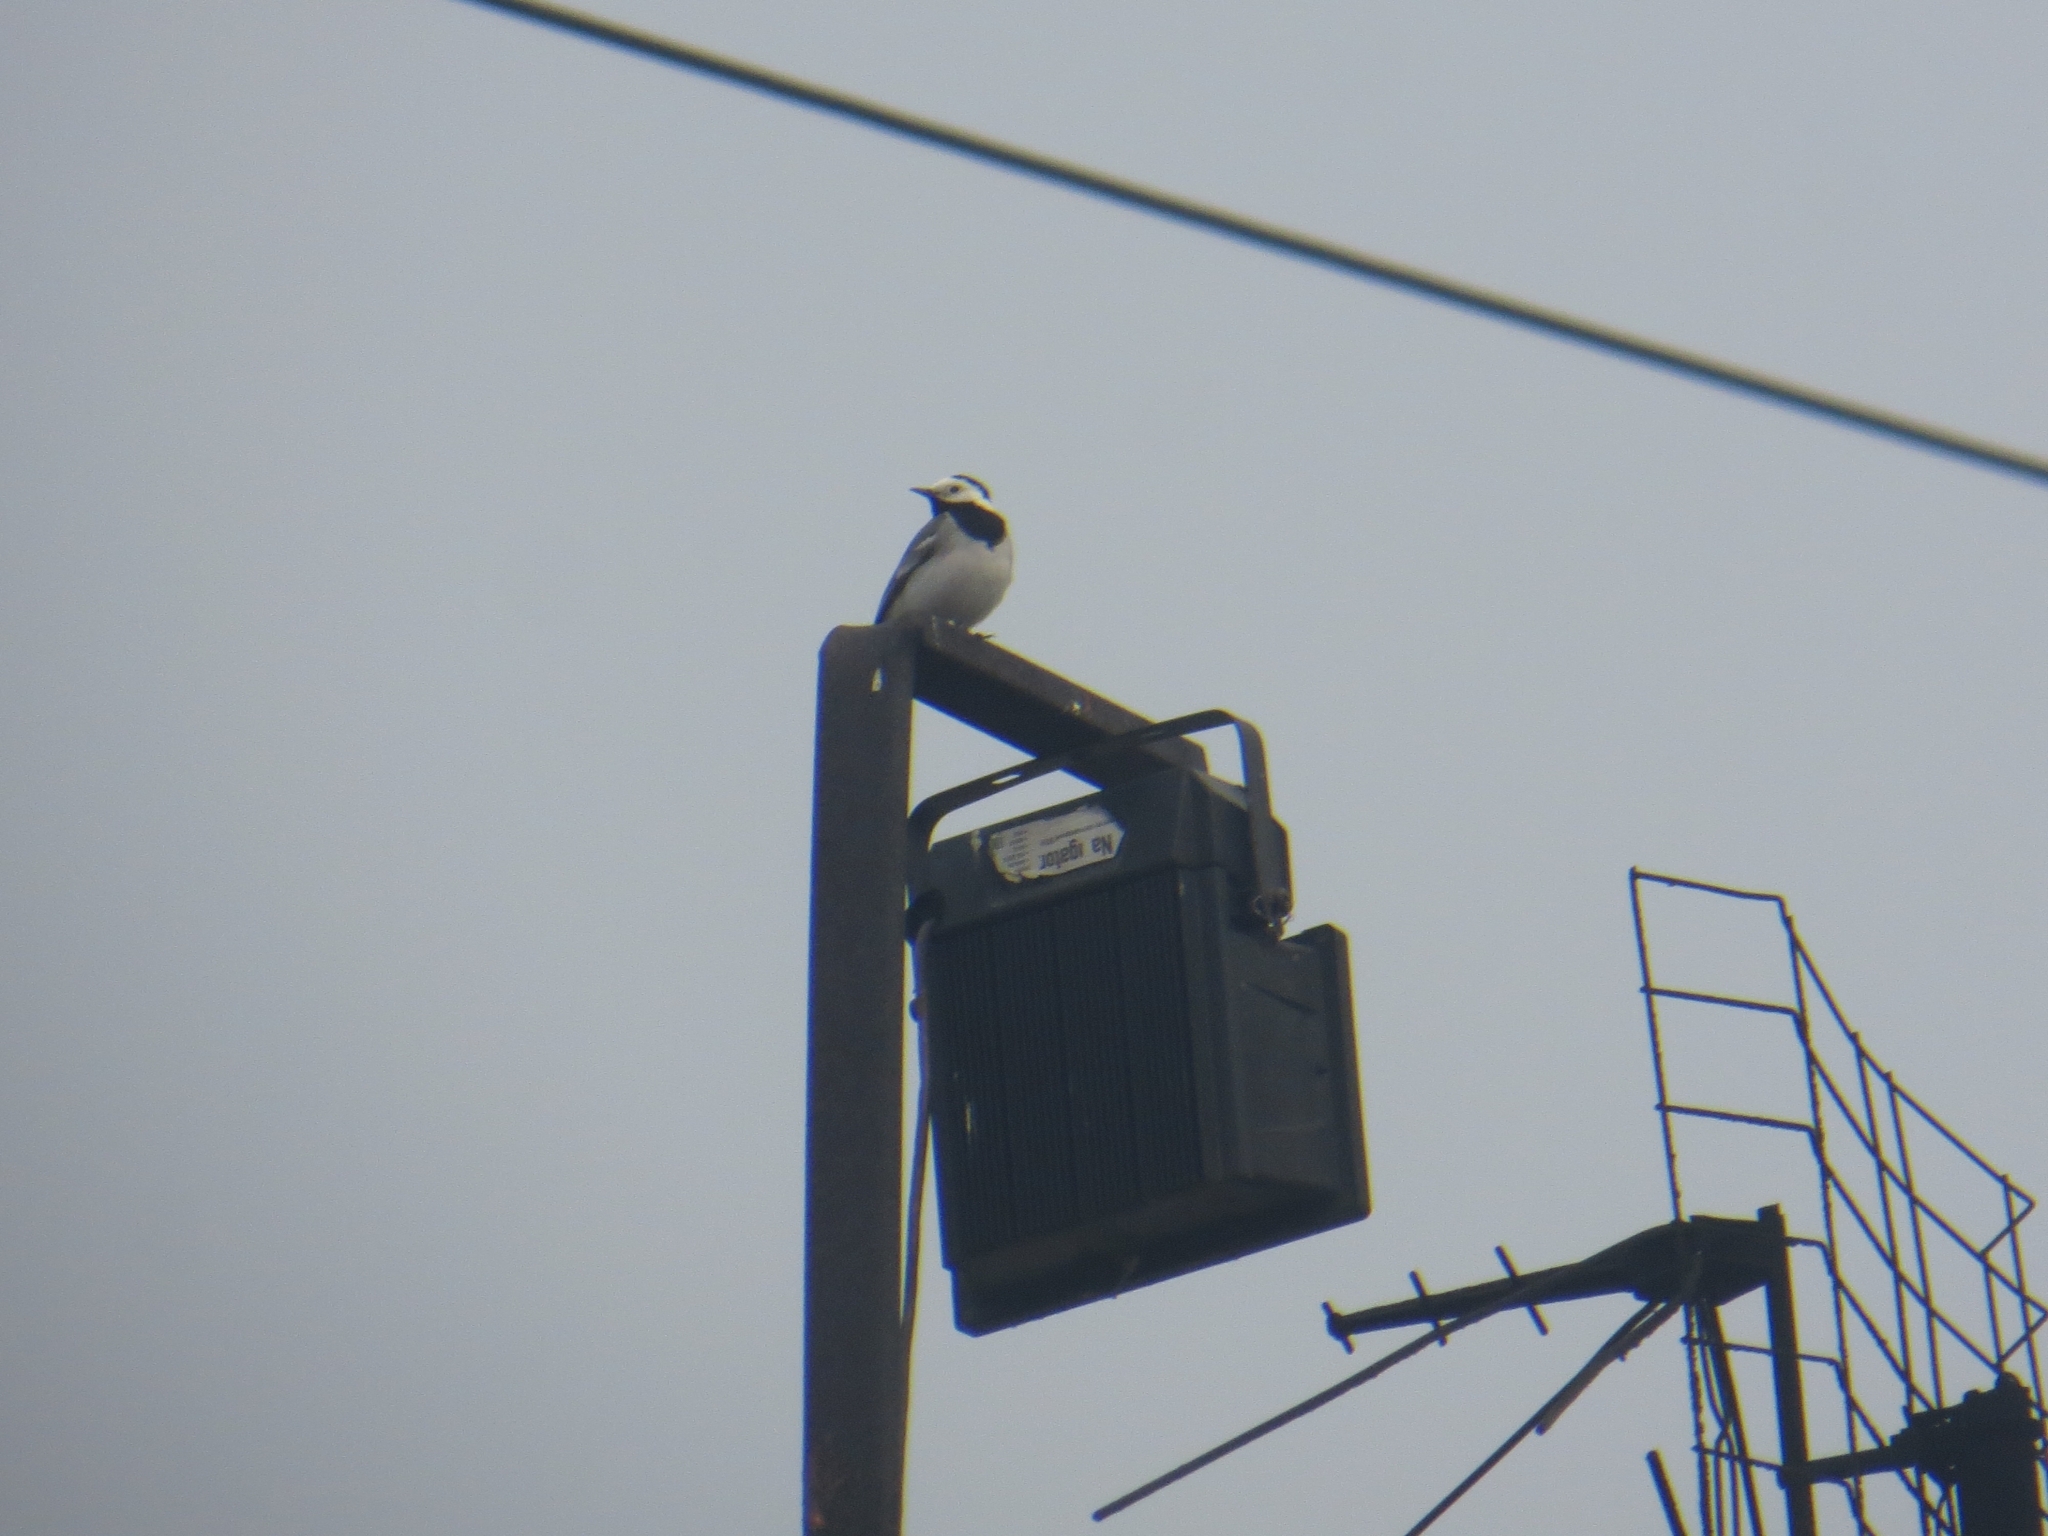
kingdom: Animalia
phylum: Chordata
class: Aves
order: Passeriformes
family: Motacillidae
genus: Motacilla
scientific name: Motacilla alba
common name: White wagtail
